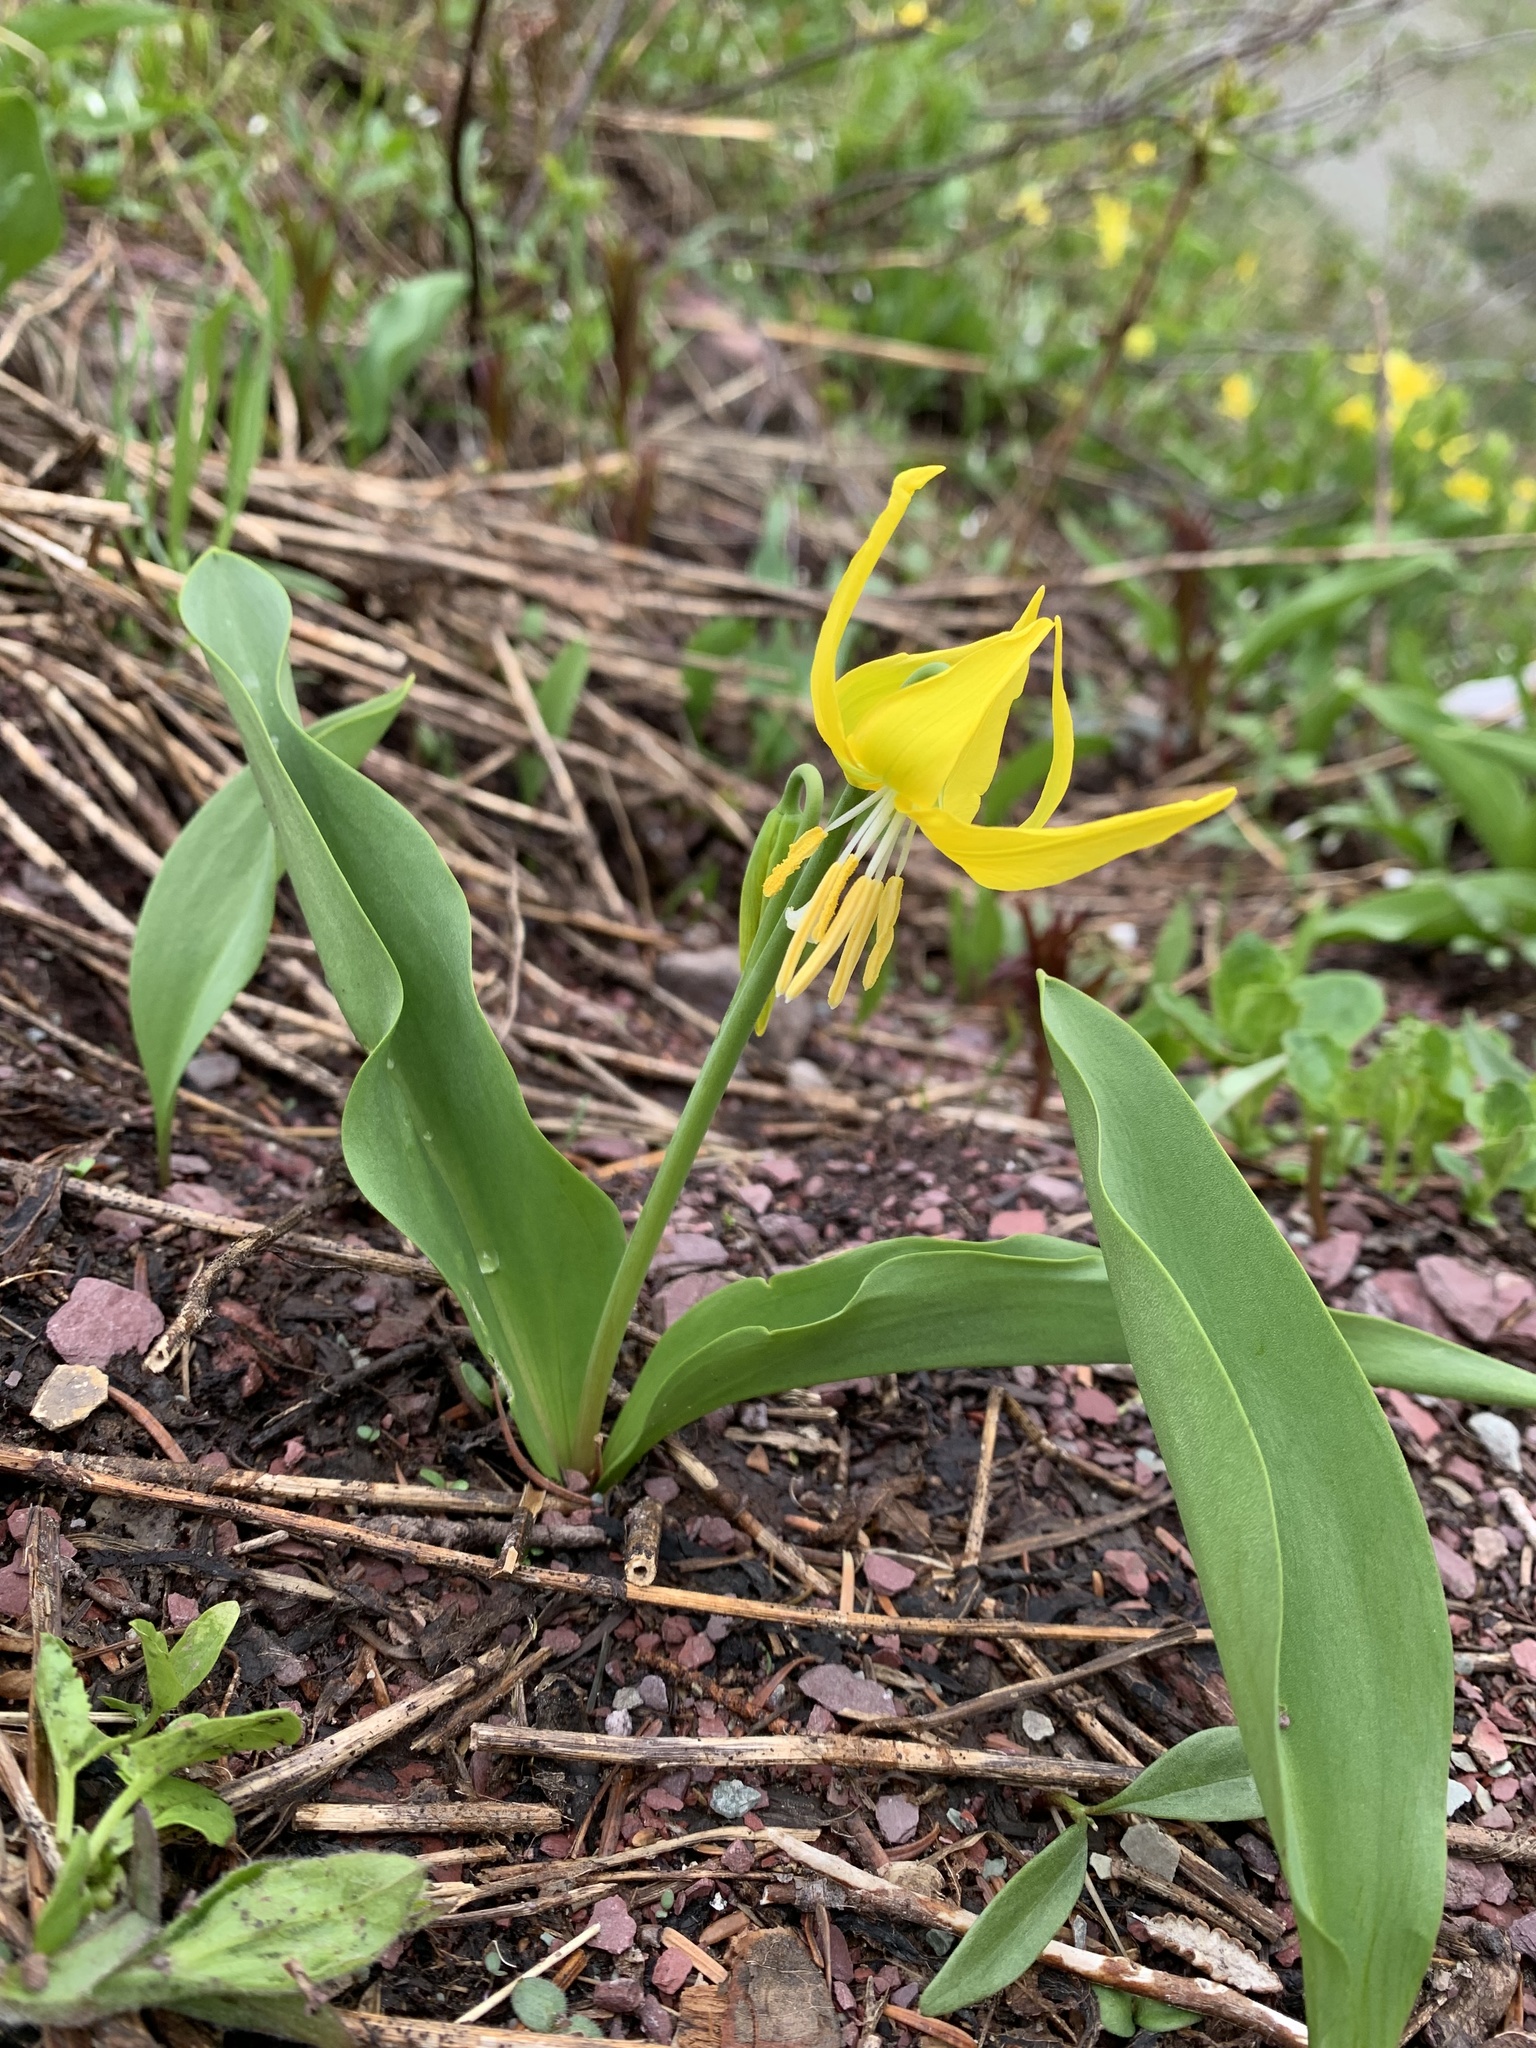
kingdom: Plantae
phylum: Tracheophyta
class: Liliopsida
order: Liliales
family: Liliaceae
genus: Erythronium
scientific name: Erythronium grandiflorum
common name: Avalanche-lily
